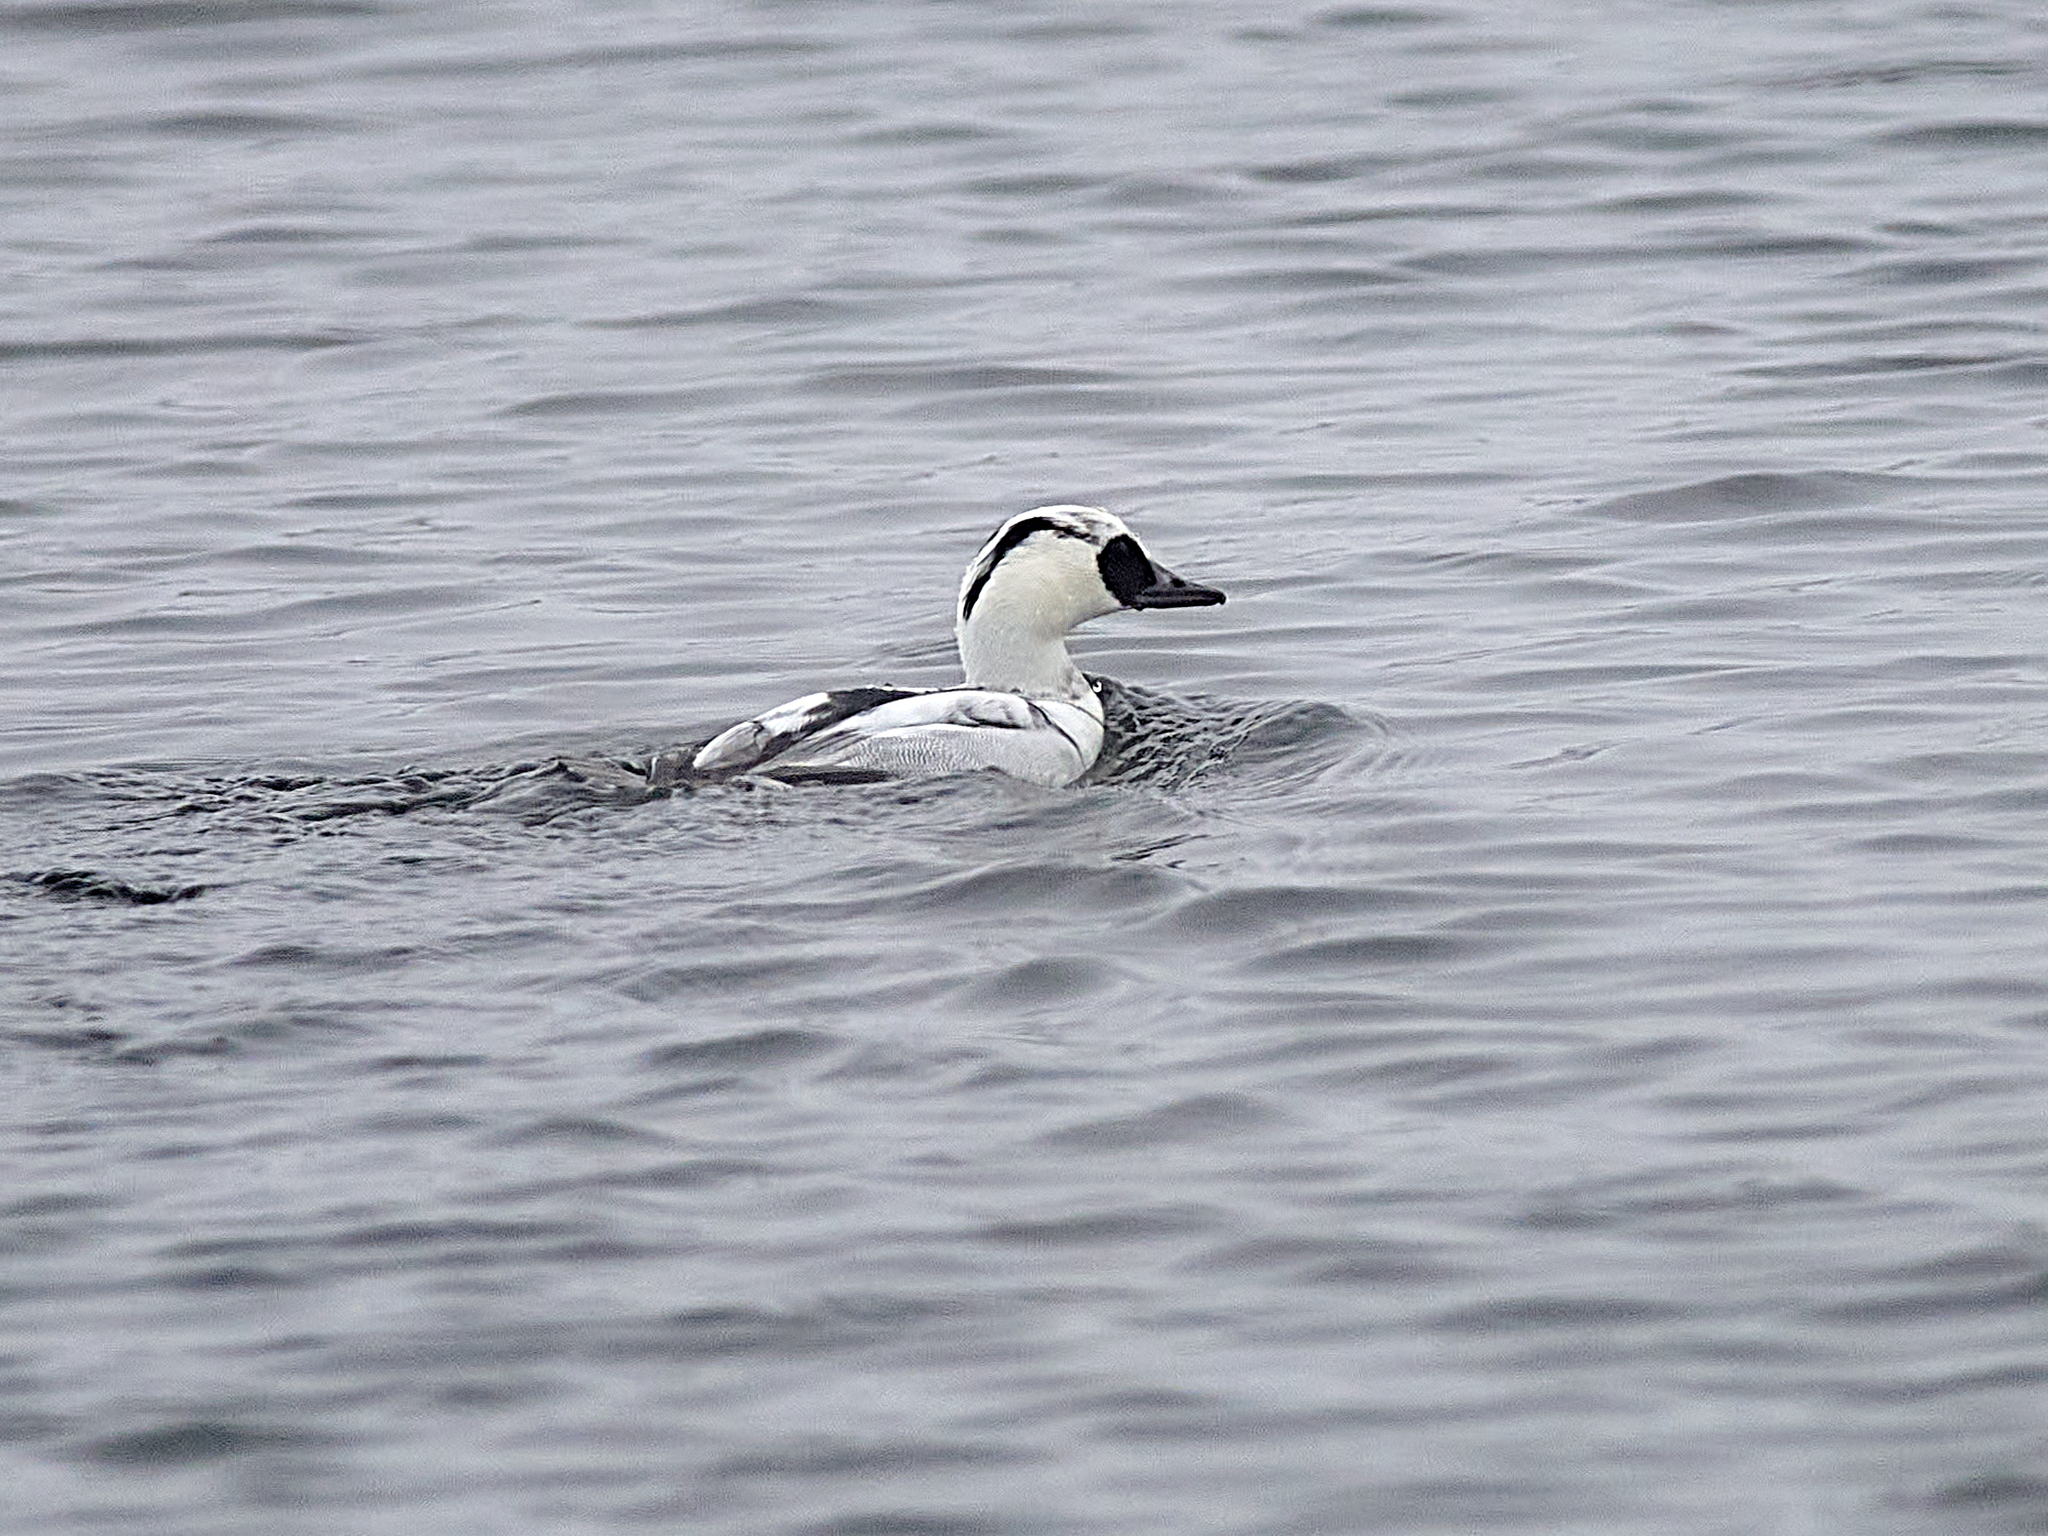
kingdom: Animalia
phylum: Chordata
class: Aves
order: Anseriformes
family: Anatidae
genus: Mergellus
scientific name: Mergellus albellus
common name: Smew
